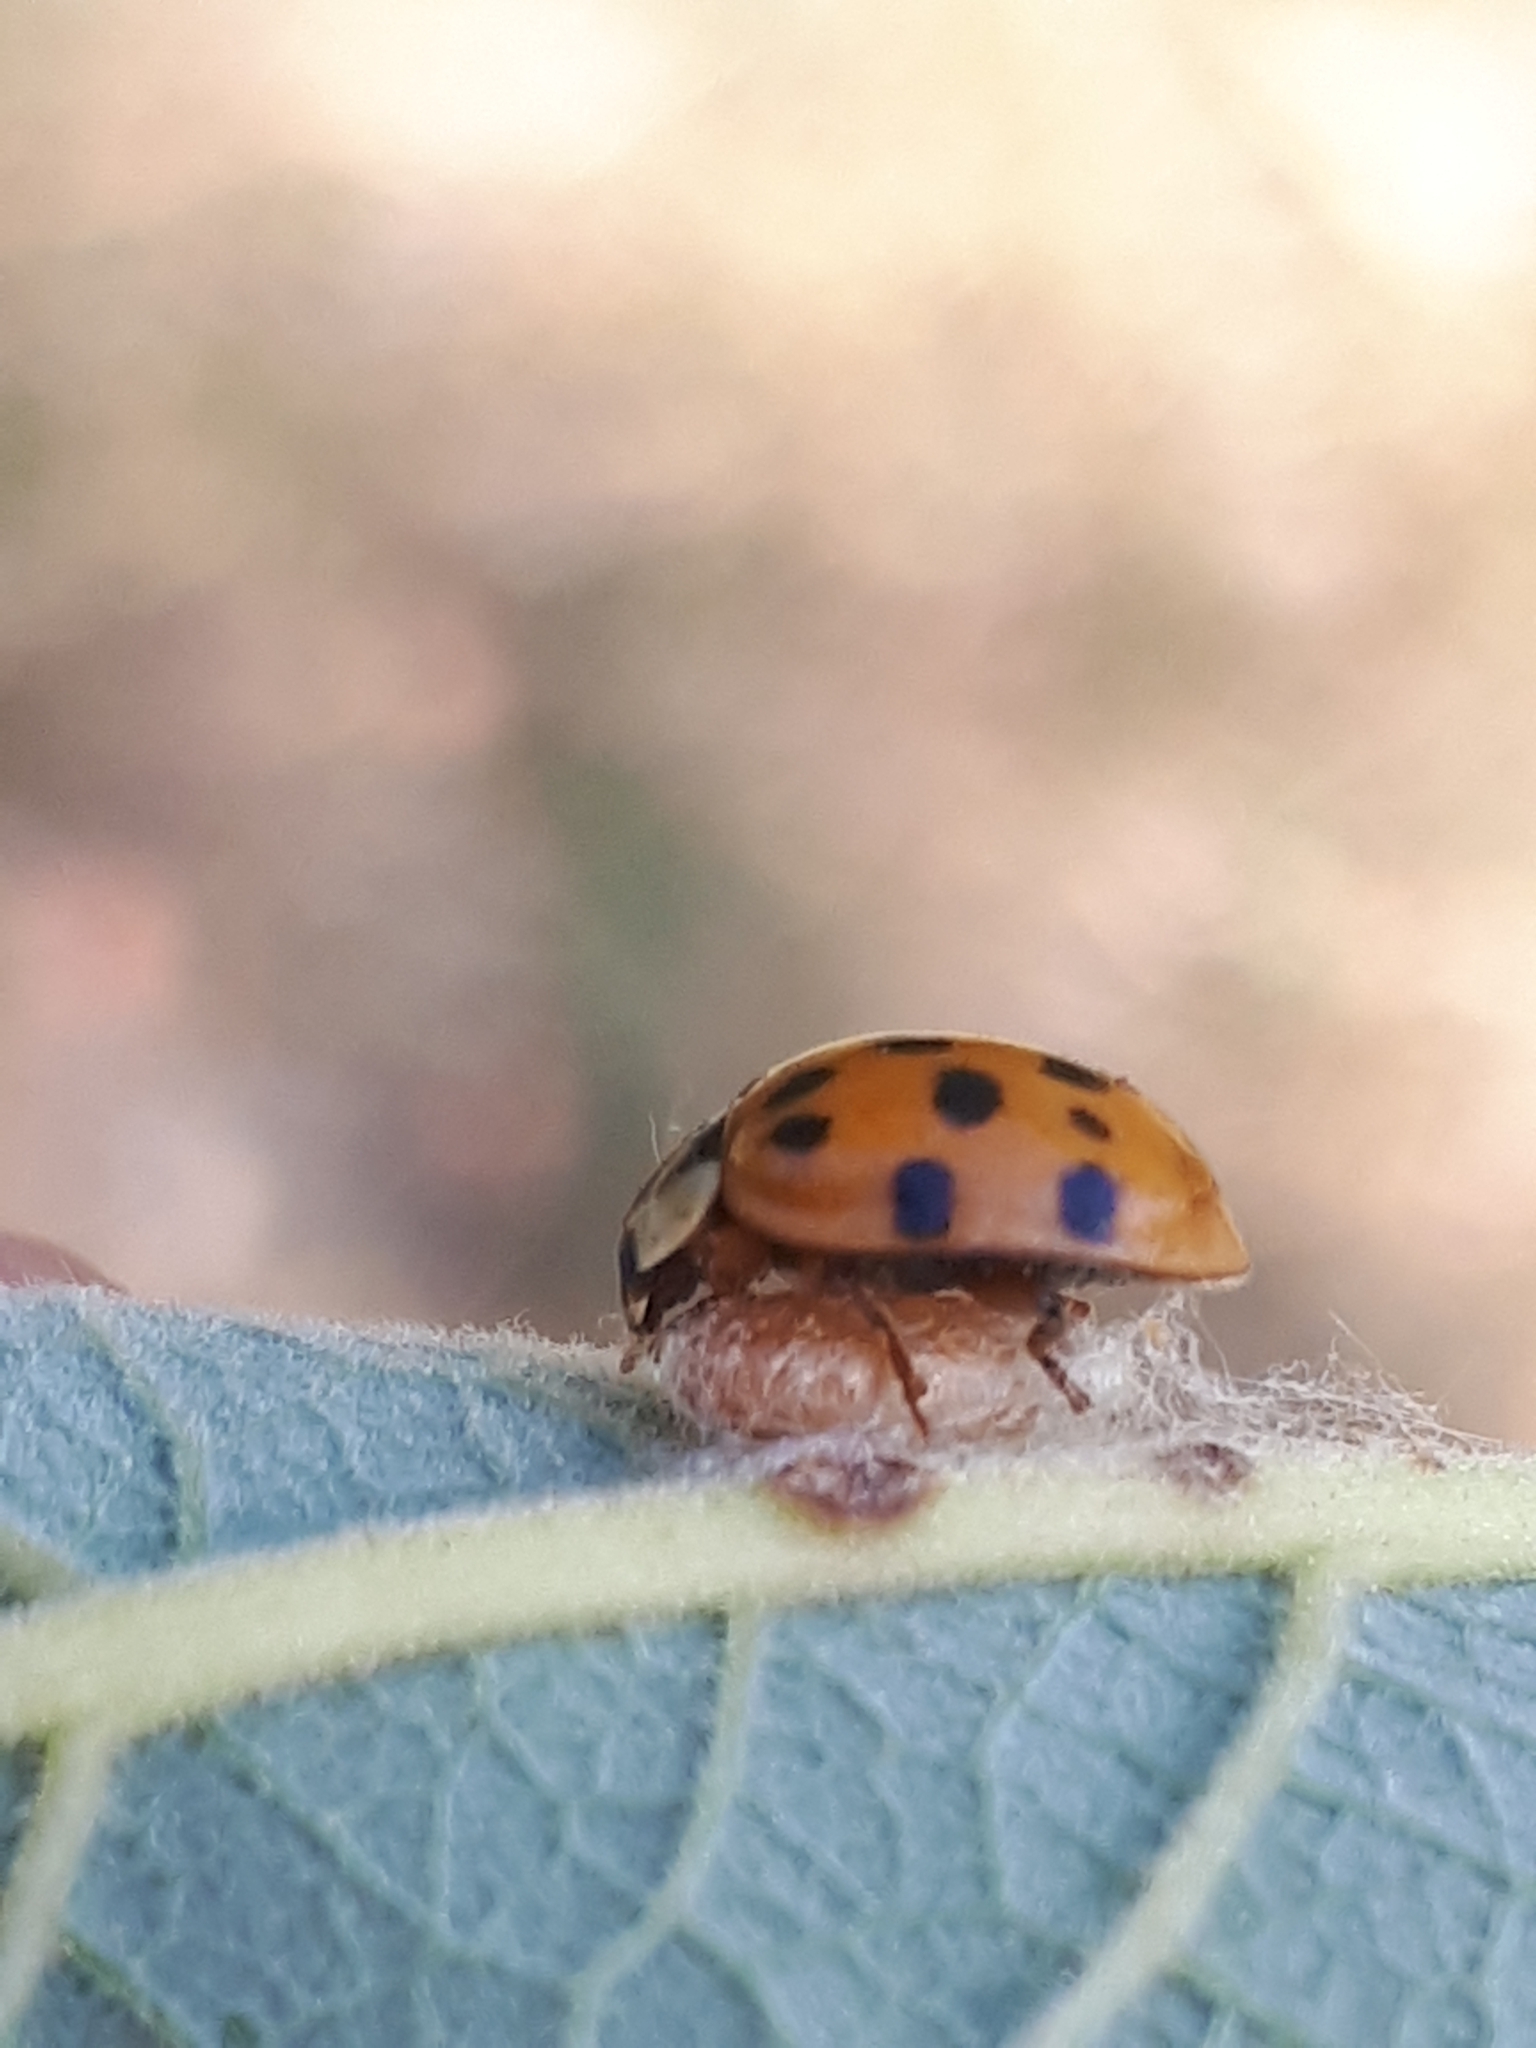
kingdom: Viruses
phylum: Pisuviricota
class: Pisoniviricetes
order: Picornavirales
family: Iflaviridae
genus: Iflavirus
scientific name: Iflavirus dinococcinellae
